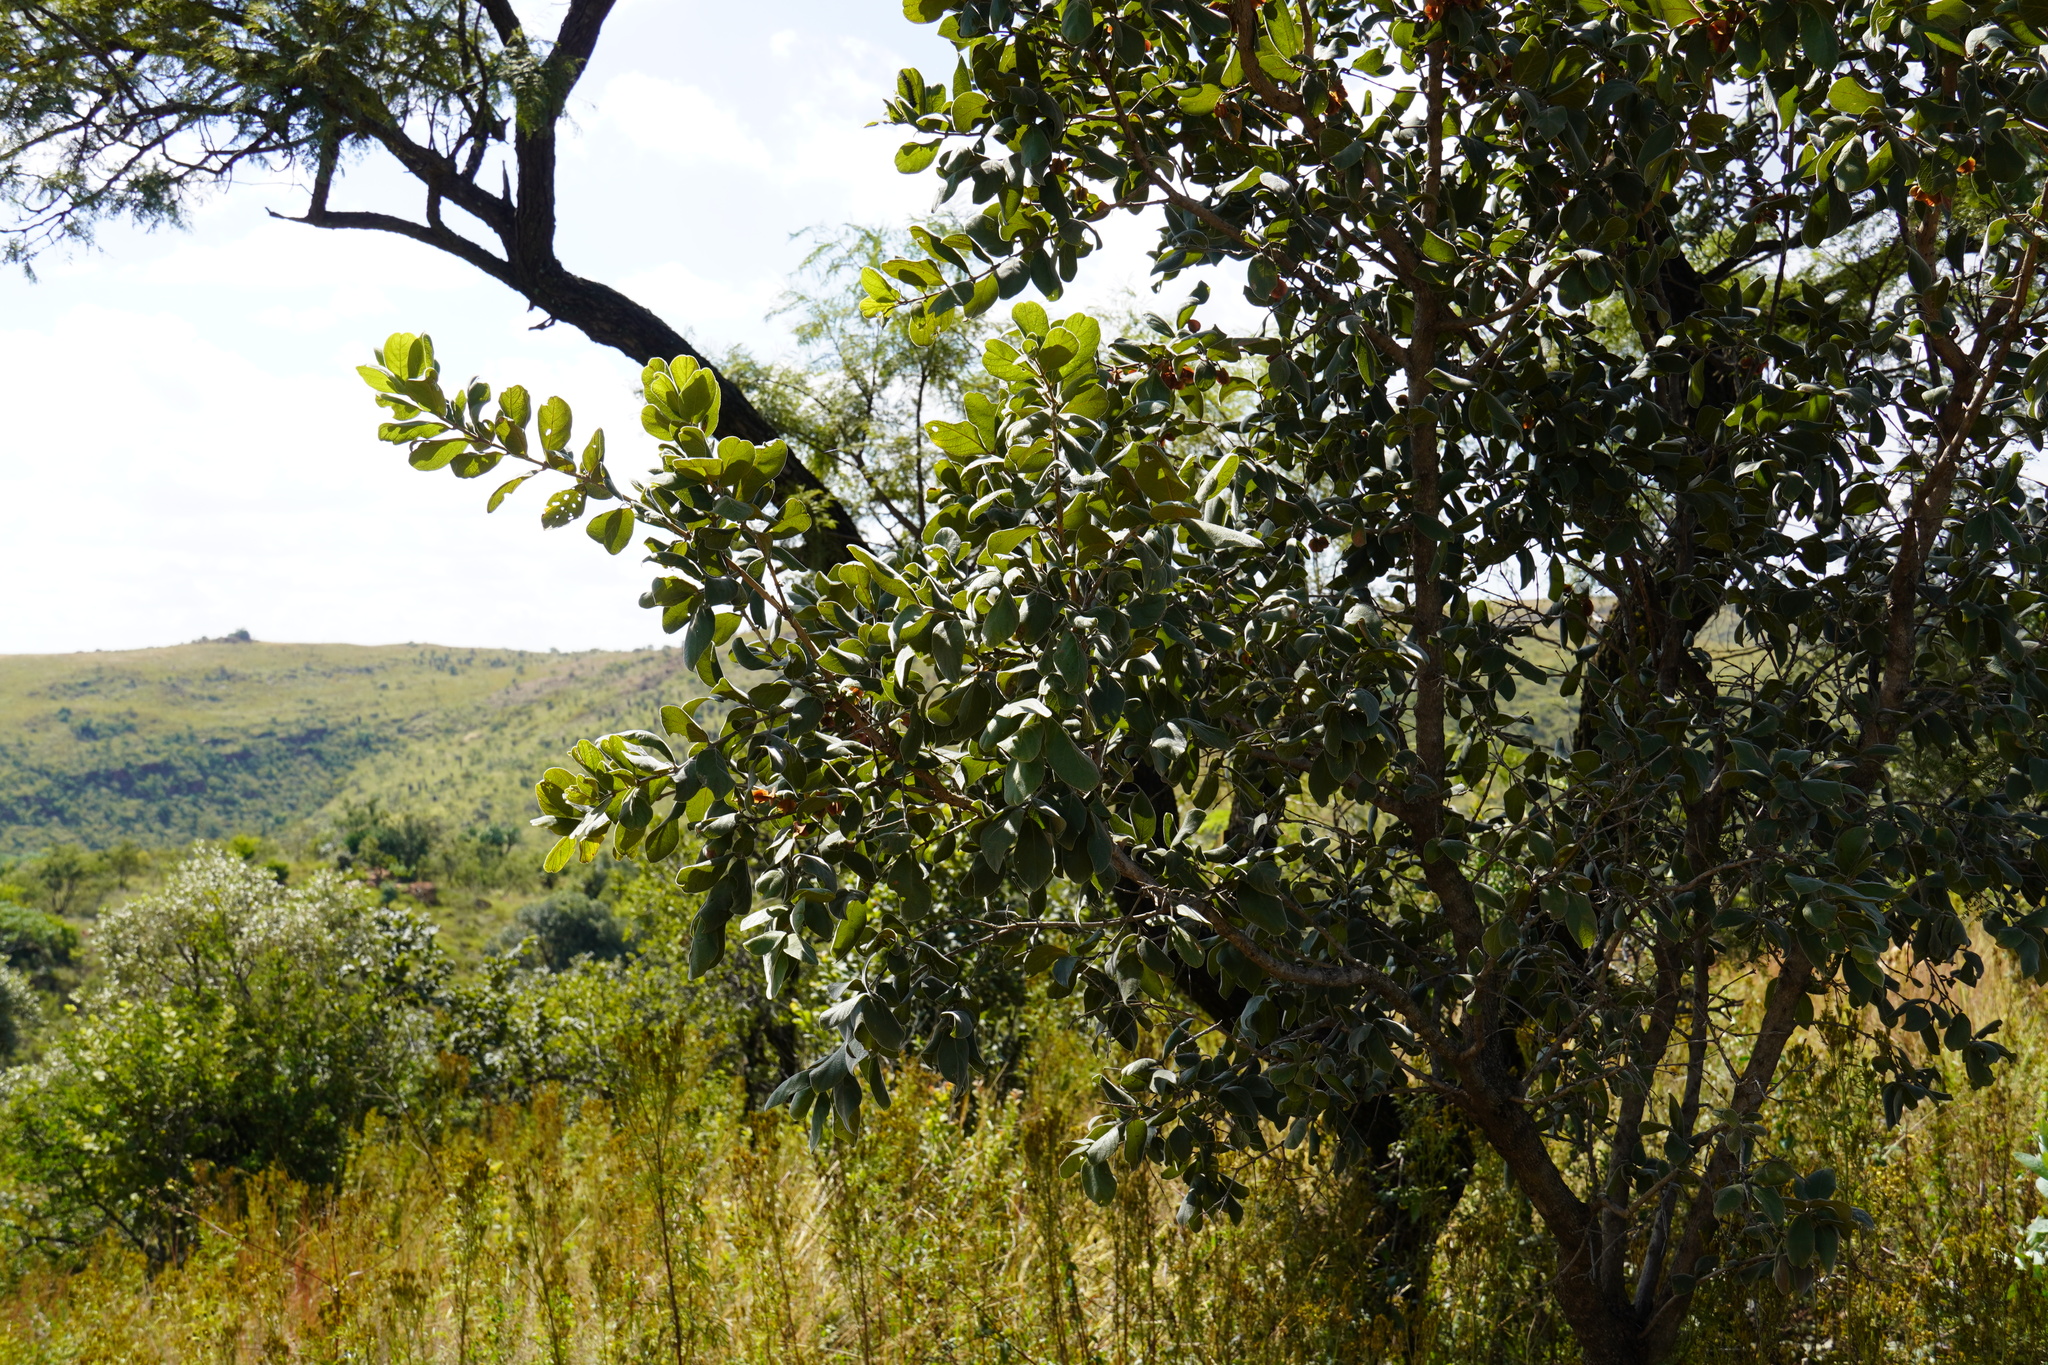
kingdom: Plantae
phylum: Tracheophyta
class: Magnoliopsida
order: Myrtales
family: Combretaceae
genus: Combretum
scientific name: Combretum molle
